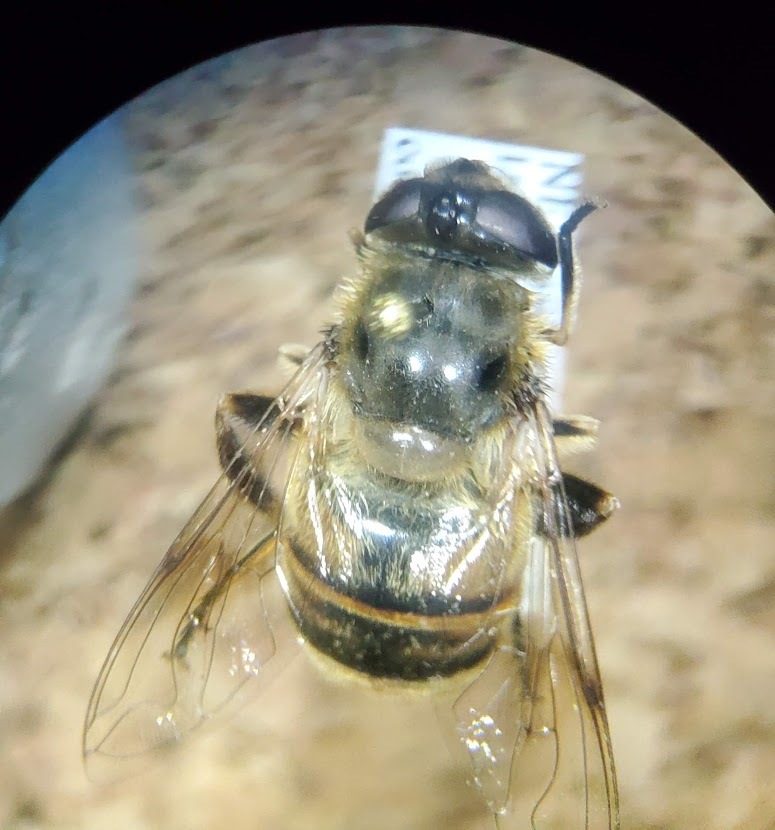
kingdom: Animalia
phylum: Arthropoda
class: Insecta
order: Diptera
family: Syrphidae
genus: Eristalis
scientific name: Eristalis tenax
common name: Drone fly
